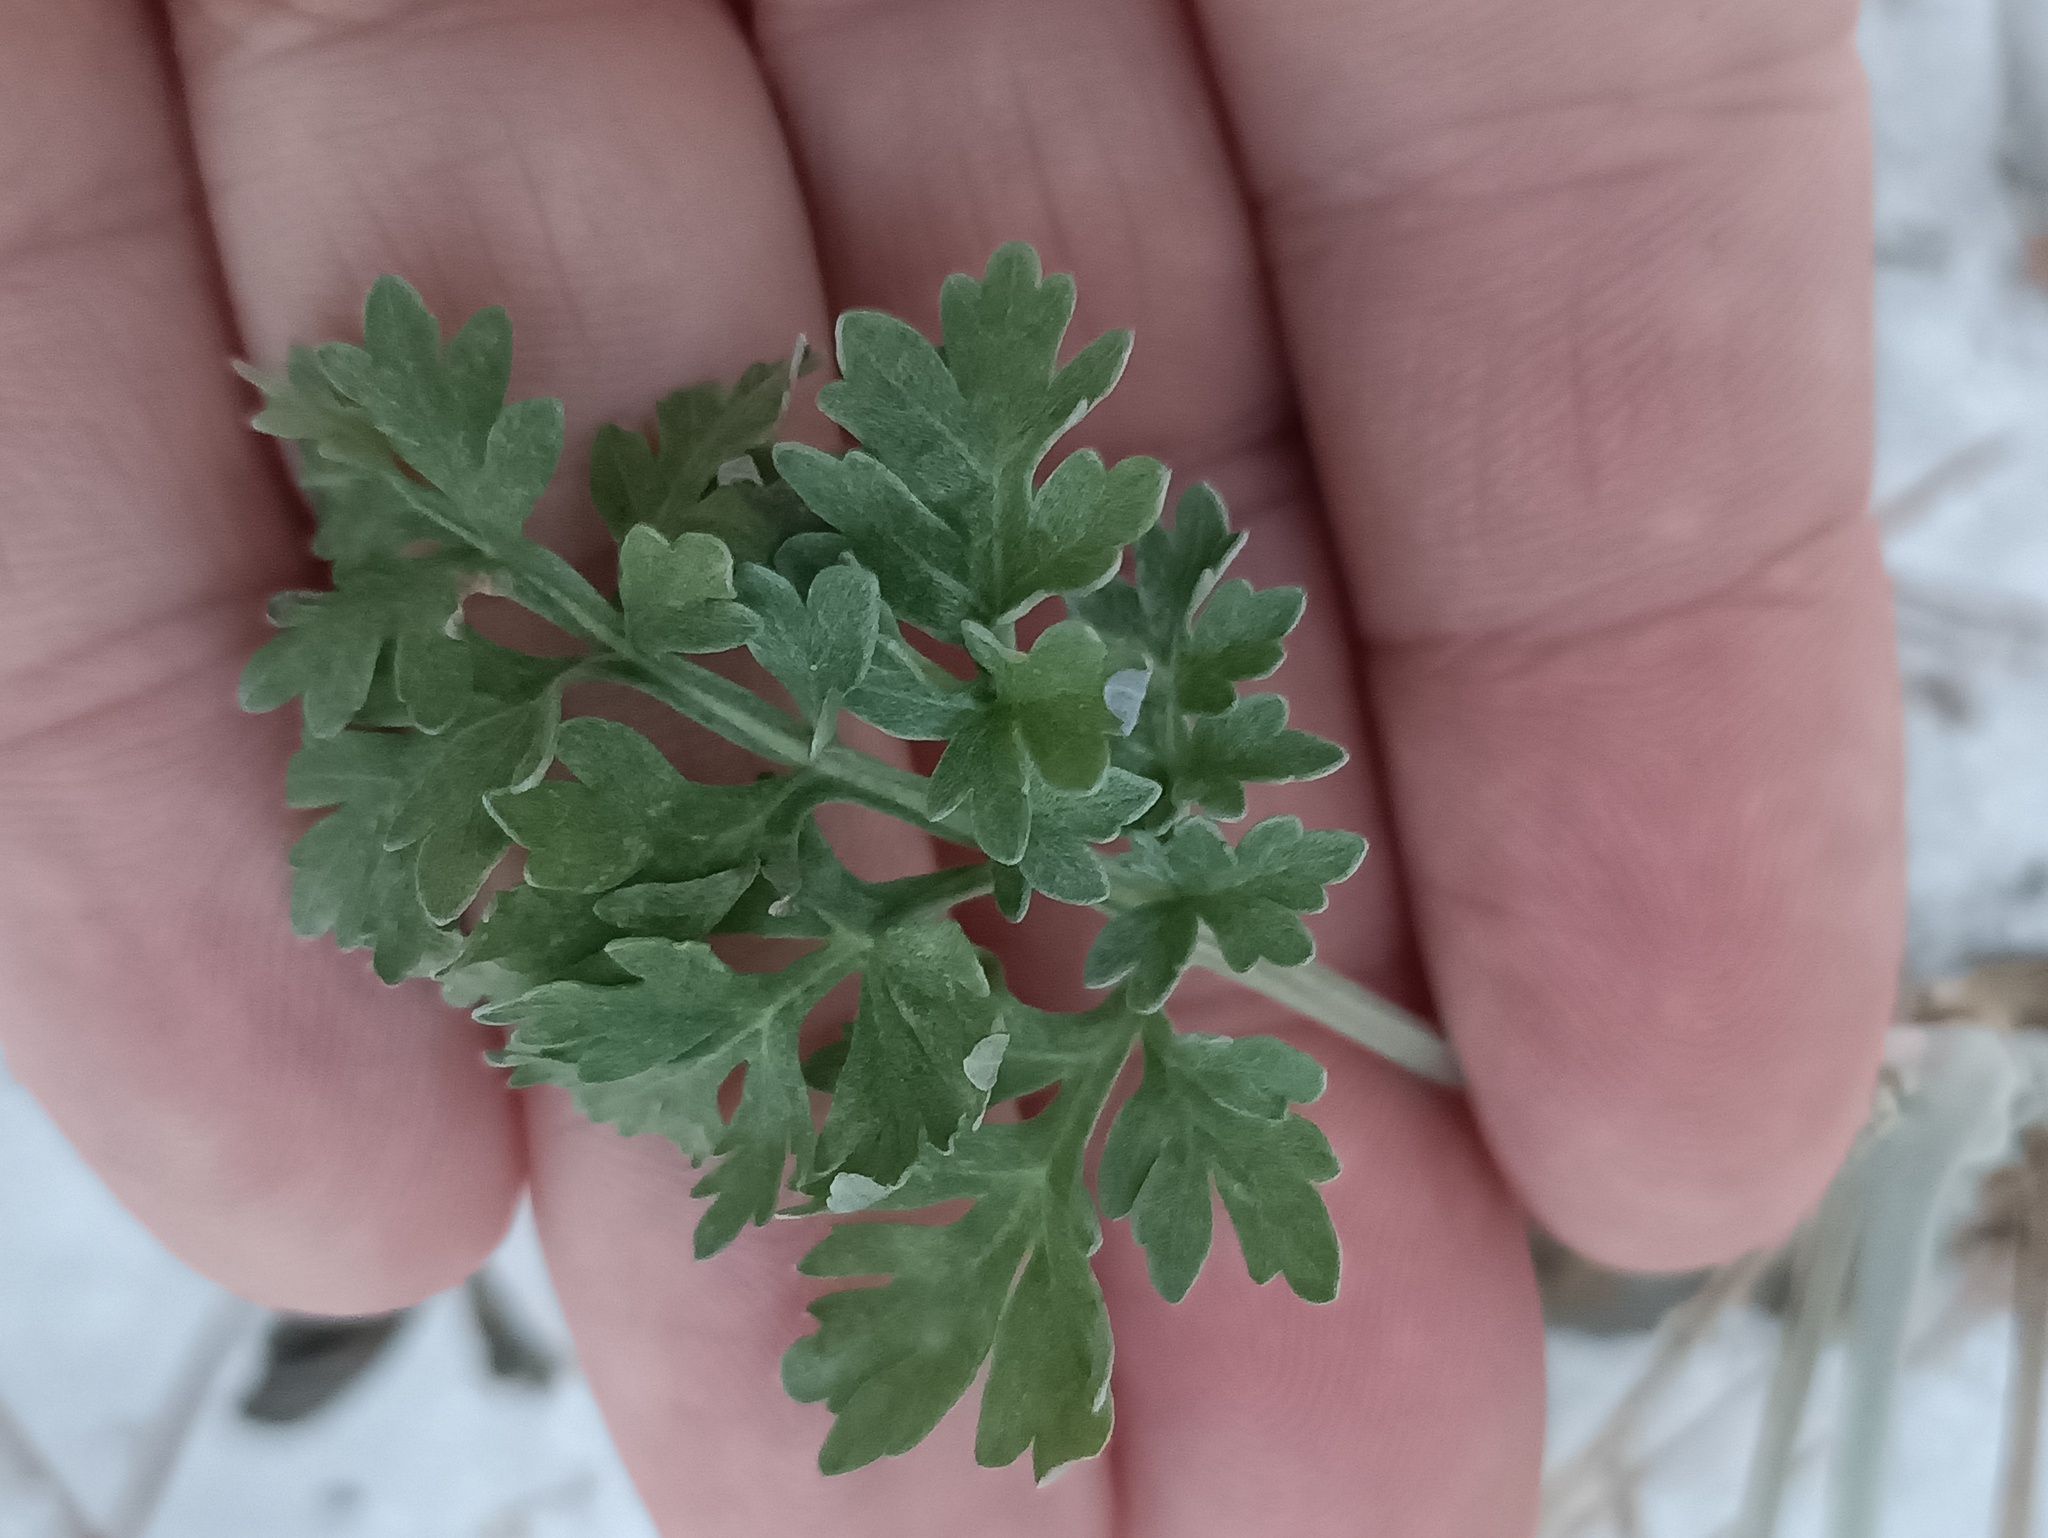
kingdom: Plantae
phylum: Tracheophyta
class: Magnoliopsida
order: Asterales
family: Asteraceae
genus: Artemisia
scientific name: Artemisia absinthium
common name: Wormwood
